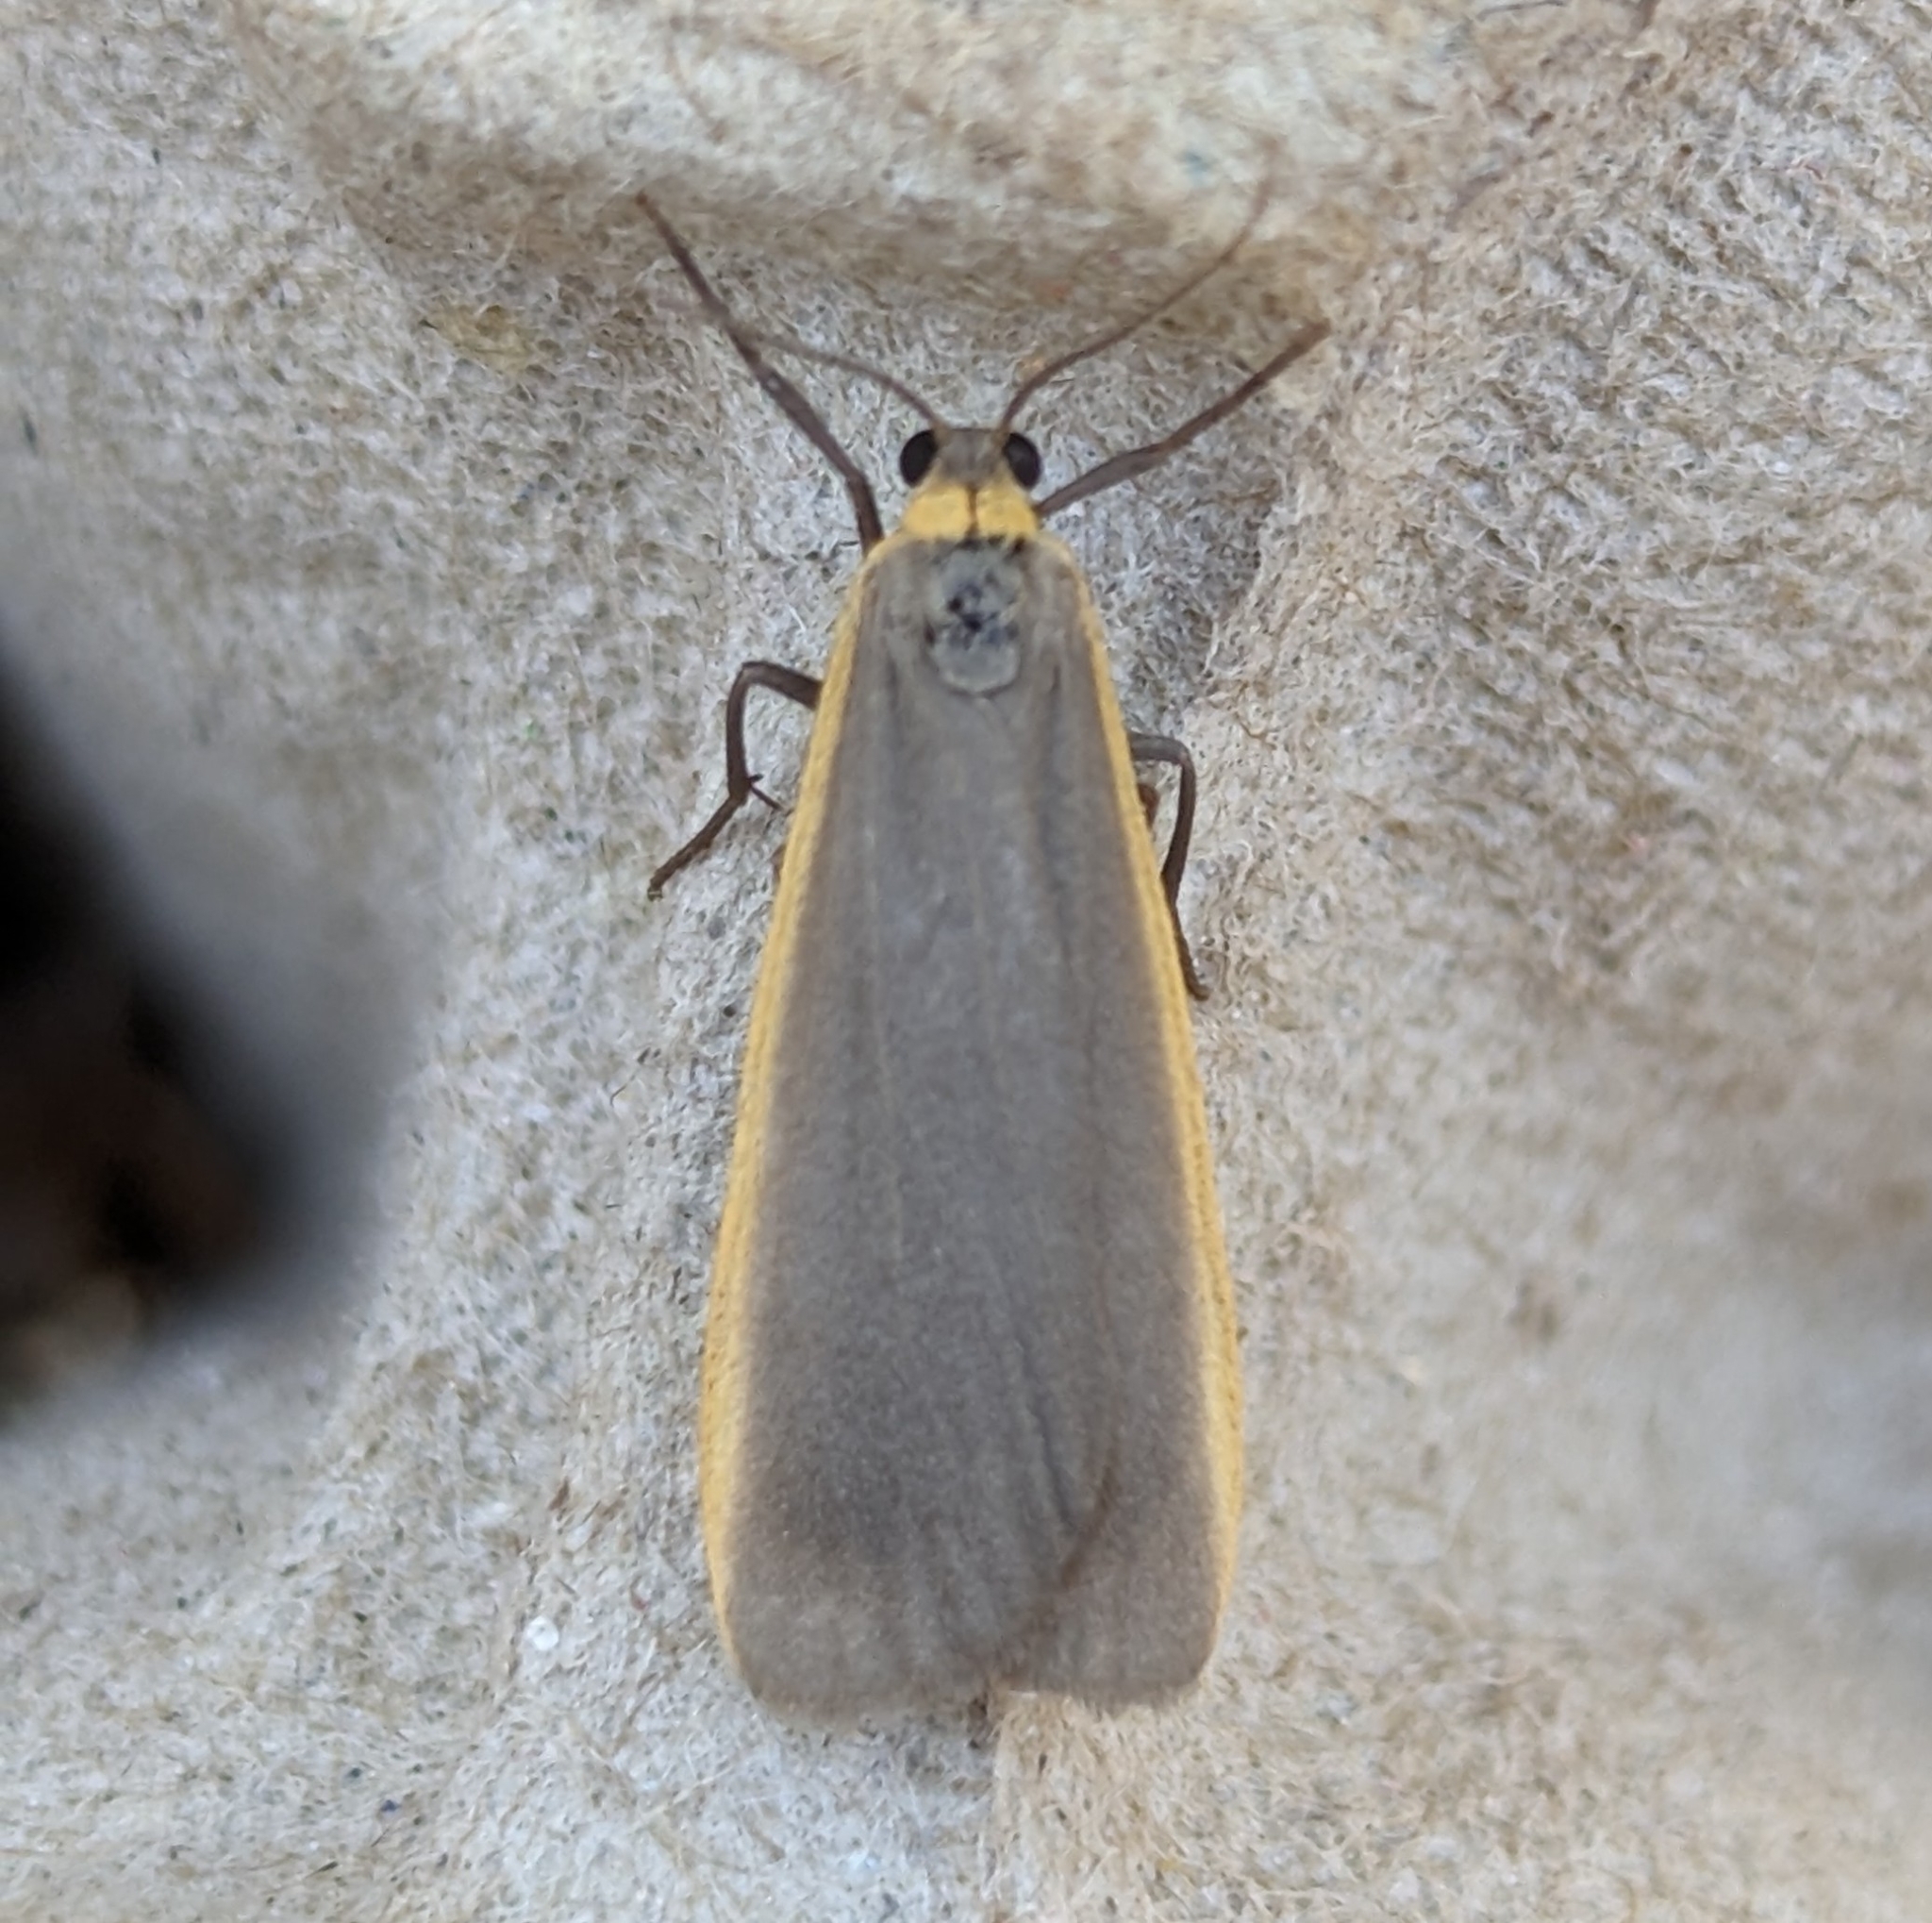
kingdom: Animalia
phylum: Arthropoda
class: Insecta
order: Lepidoptera
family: Erebidae
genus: Manulea
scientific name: Manulea bicolor
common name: Bicolored moth
